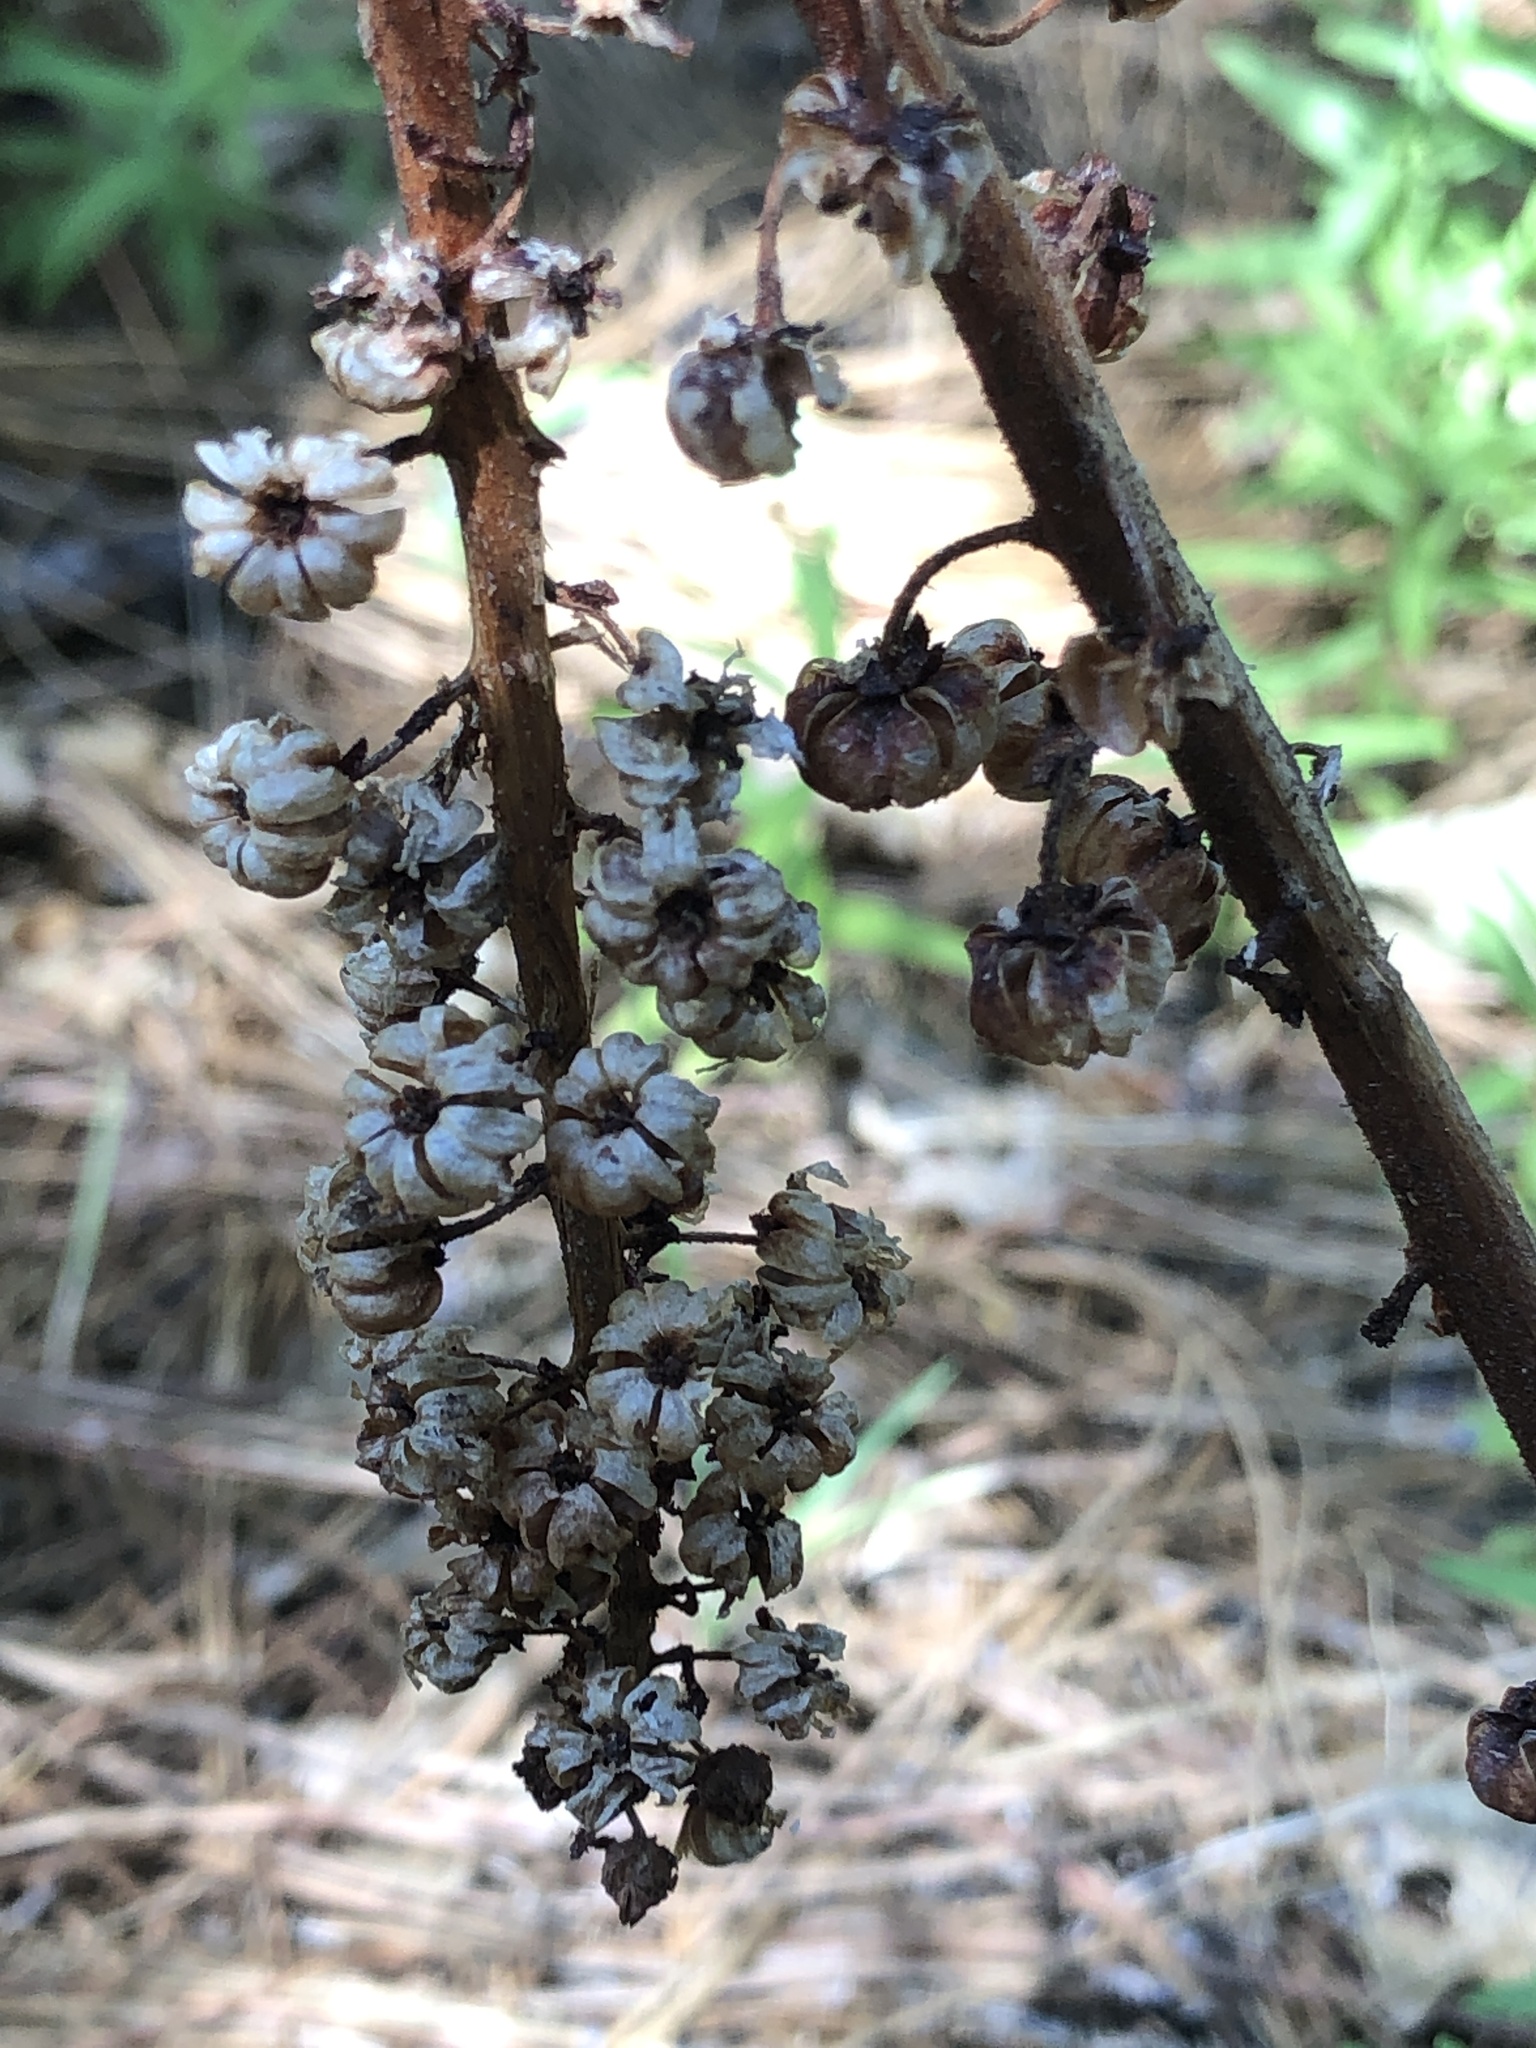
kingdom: Plantae
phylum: Tracheophyta
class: Magnoliopsida
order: Ericales
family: Ericaceae
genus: Pterospora
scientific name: Pterospora andromedea
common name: Giant bird's-nest
